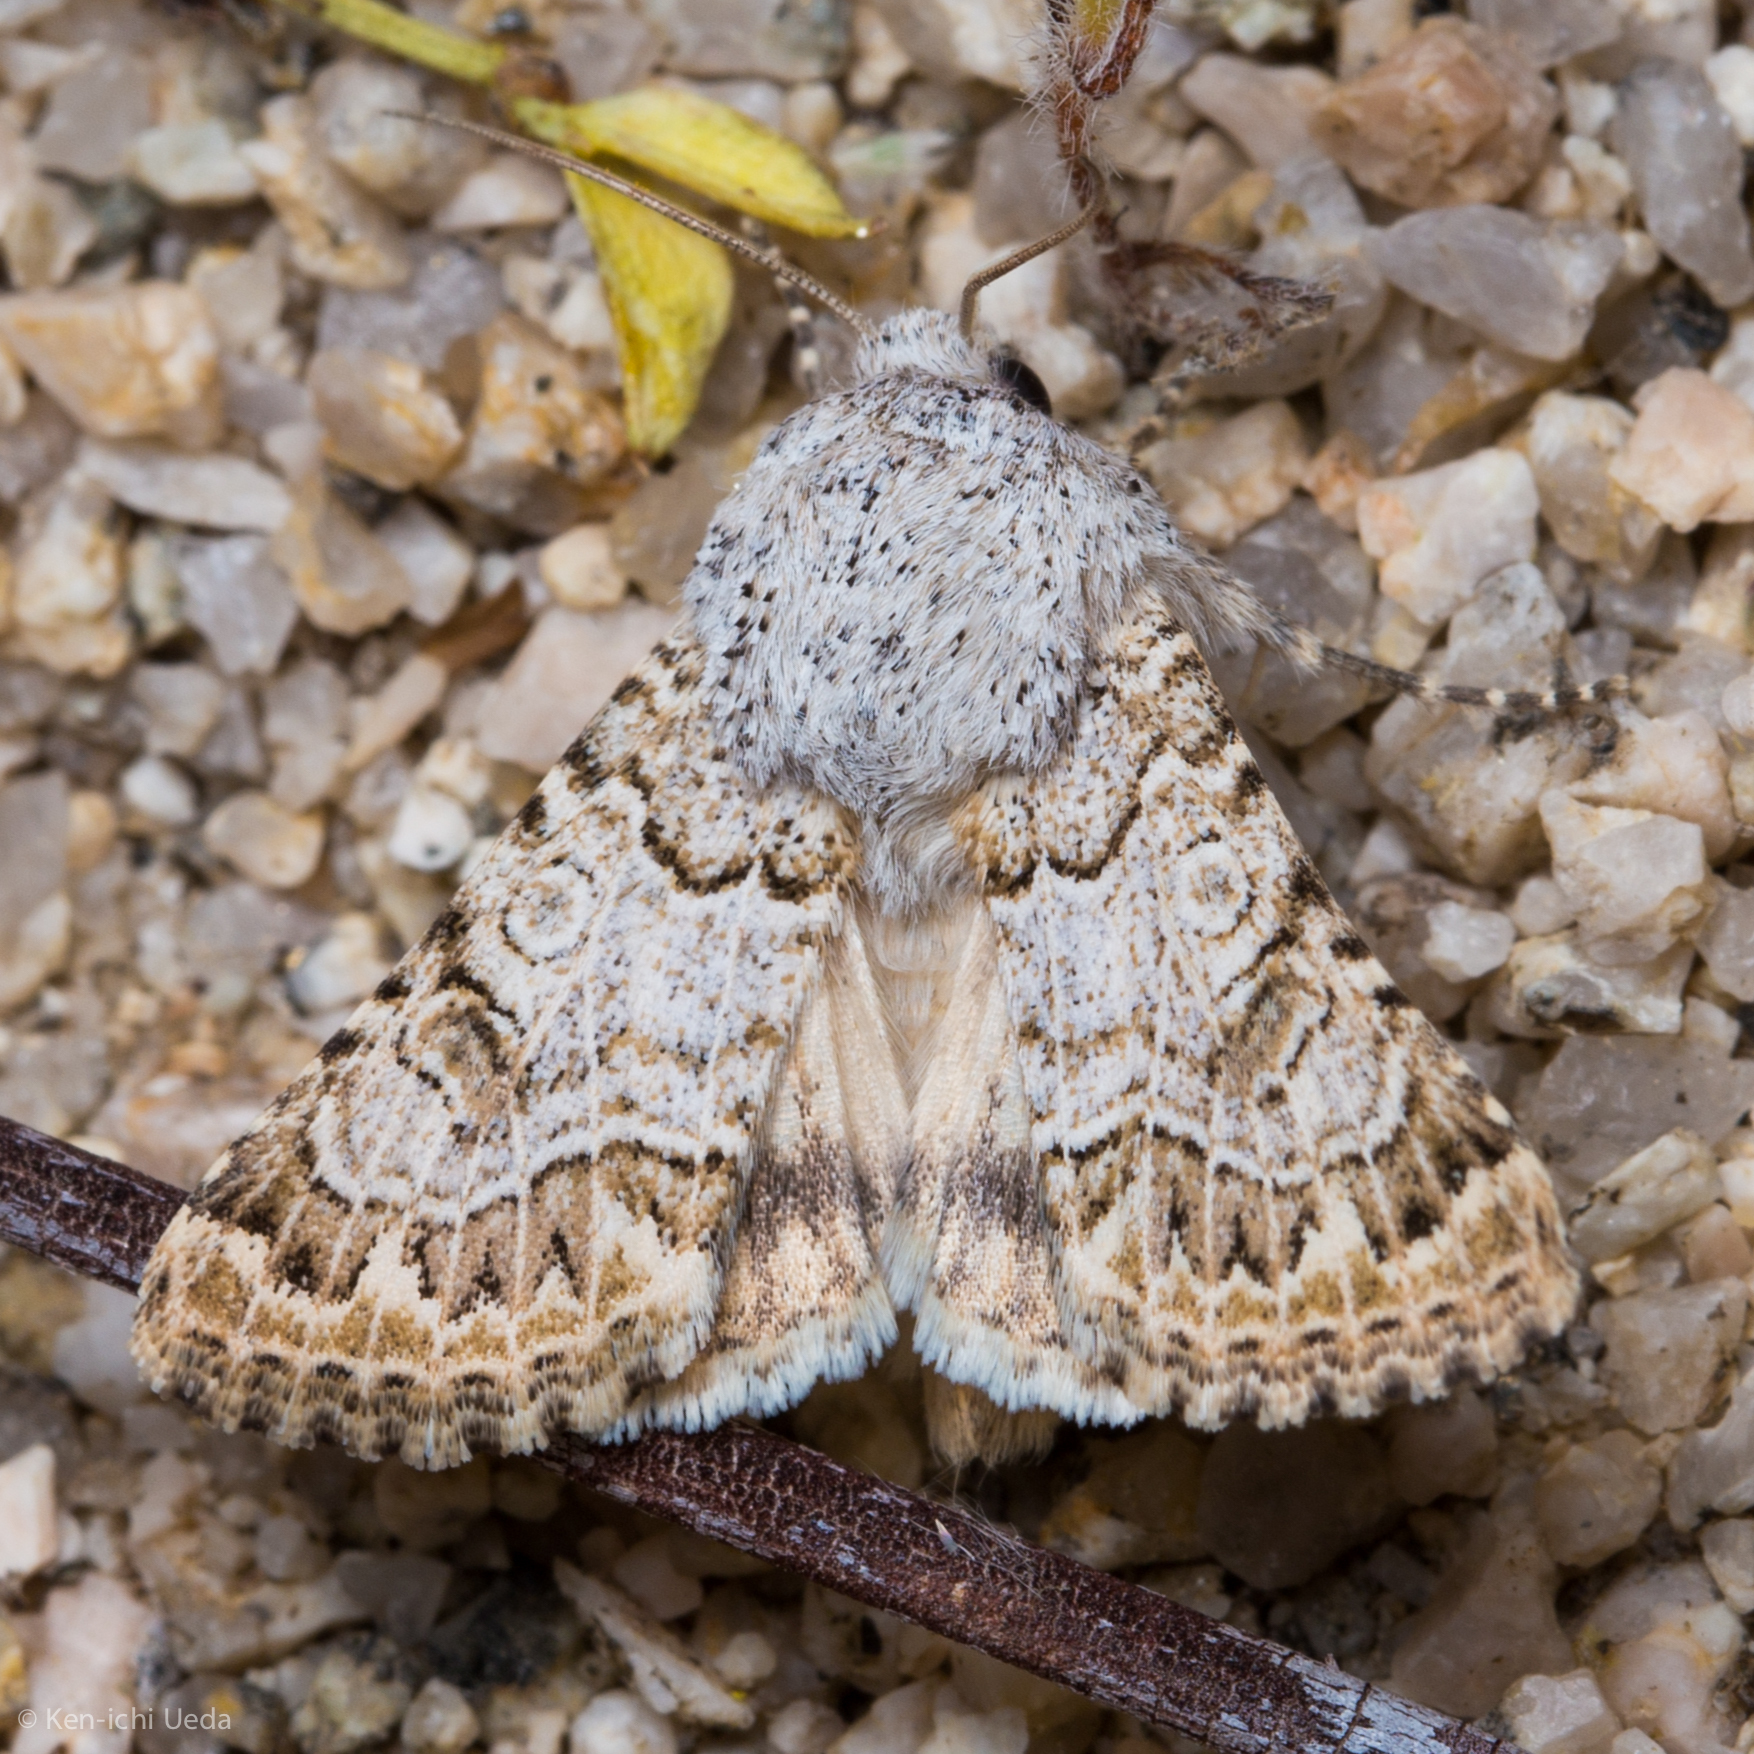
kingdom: Animalia
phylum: Arthropoda
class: Insecta
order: Lepidoptera
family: Noctuidae
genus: Schinia
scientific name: Schinia deserticola
